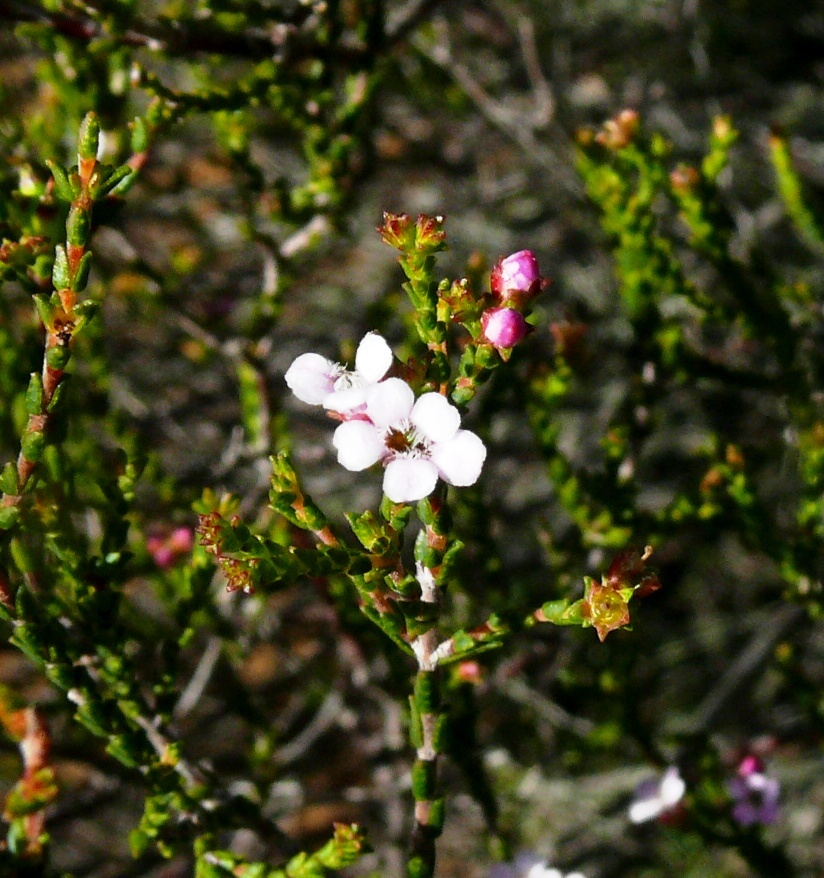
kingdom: Plantae
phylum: Tracheophyta
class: Magnoliopsida
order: Sapindales
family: Rutaceae
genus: Euchaetis
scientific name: Euchaetis albertiniana
